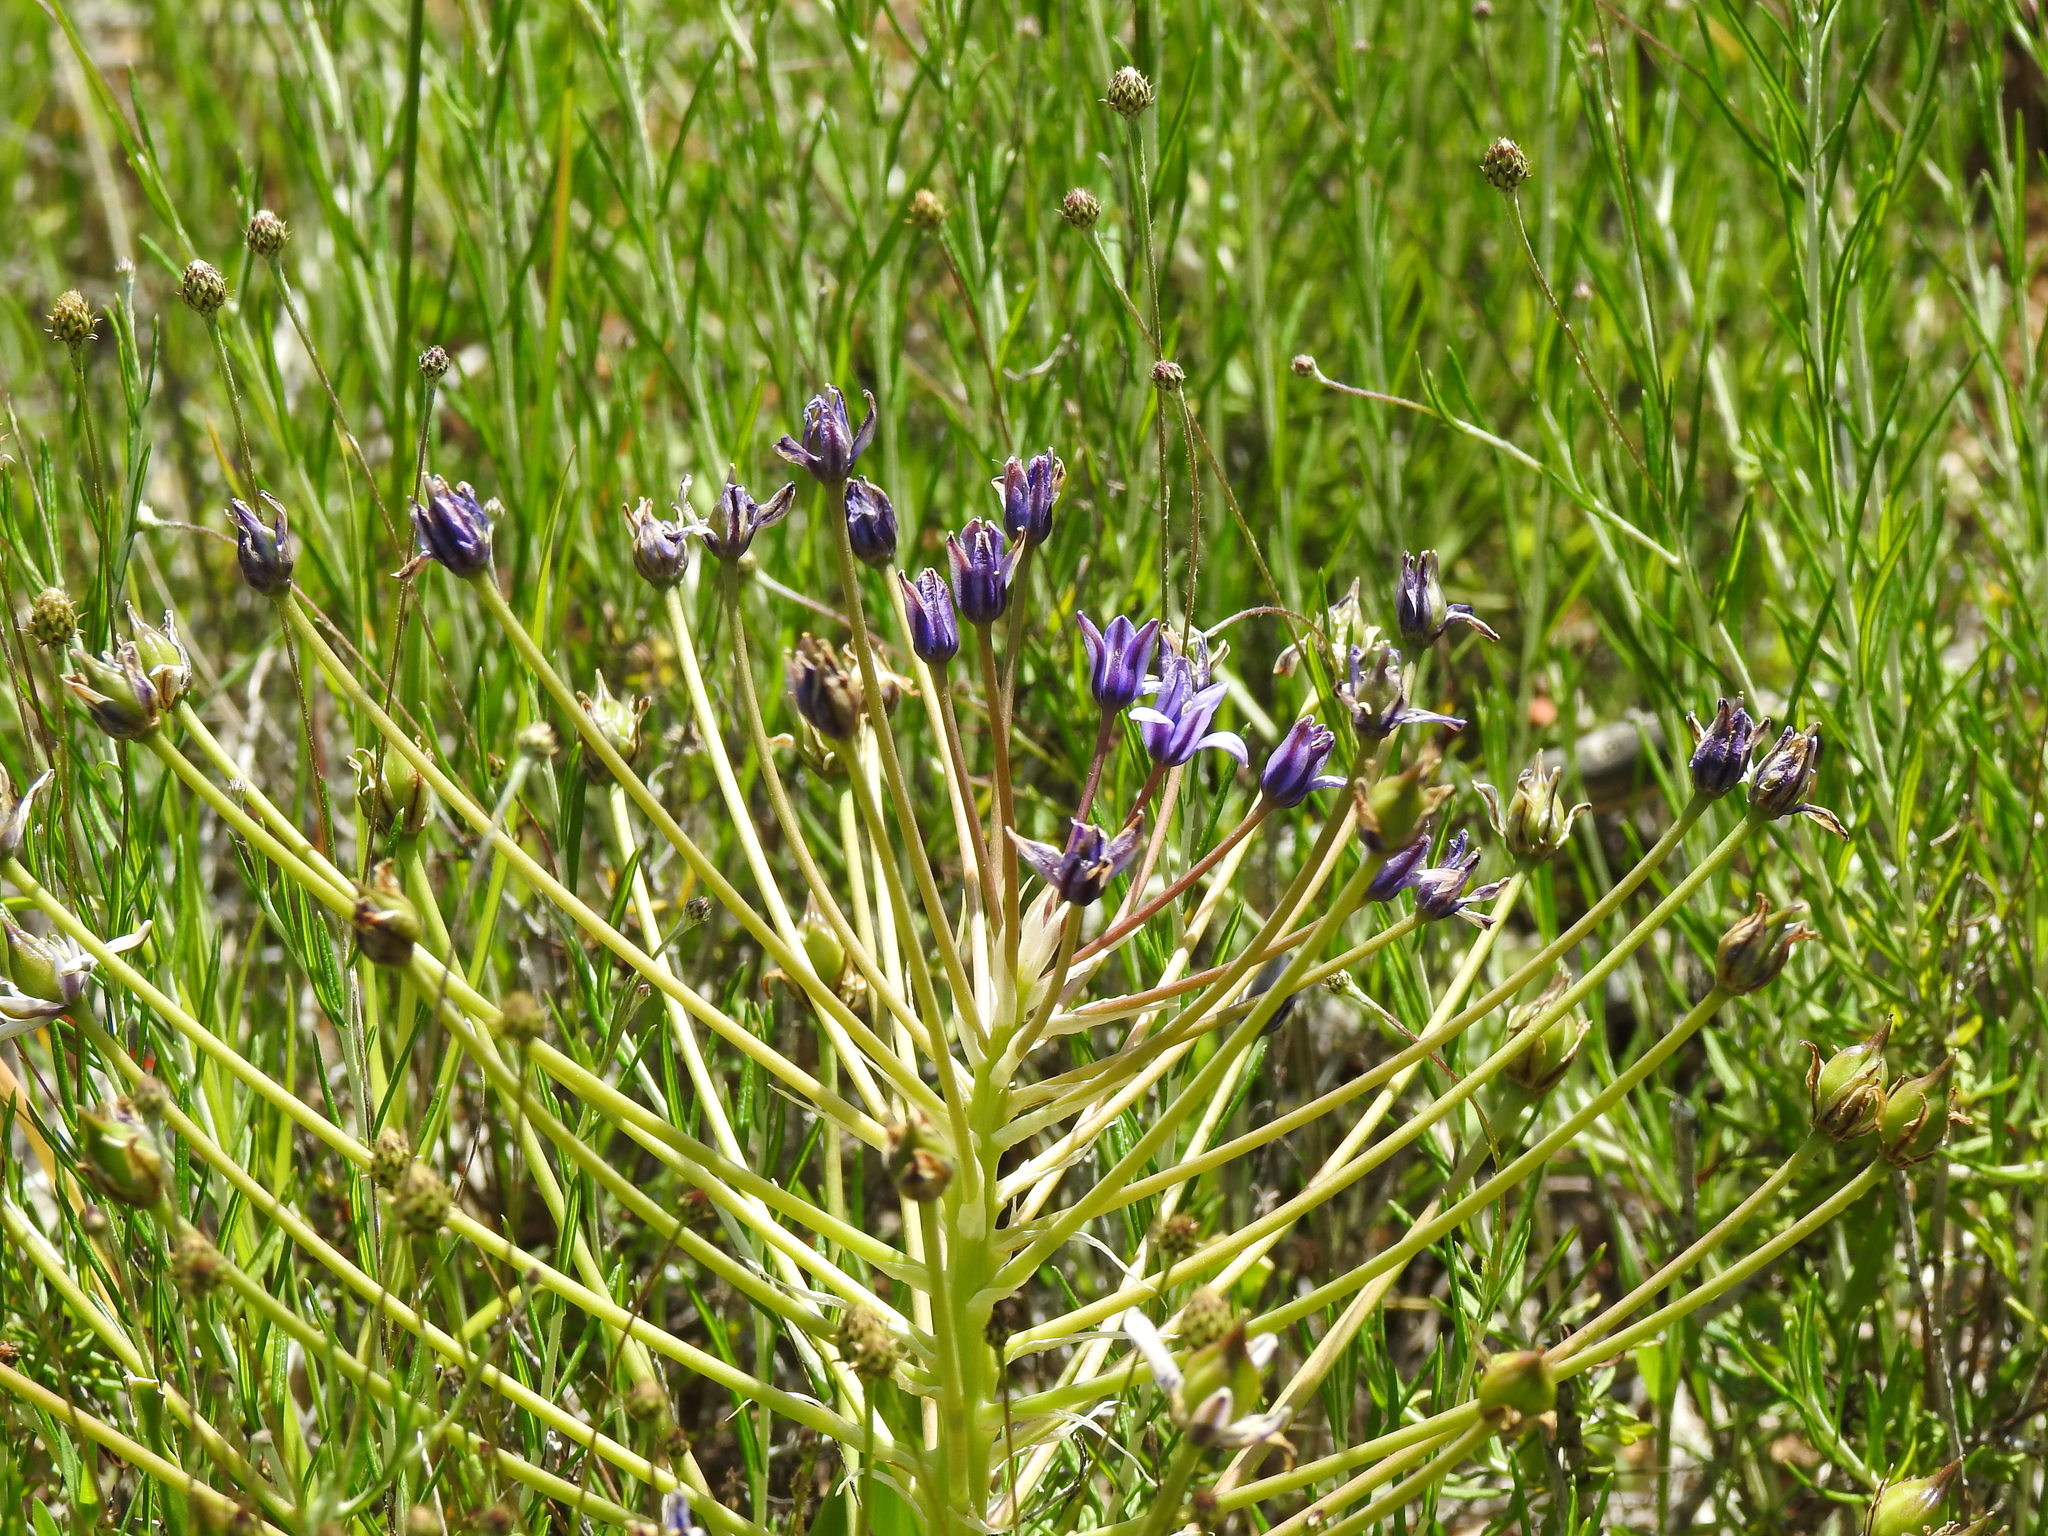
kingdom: Plantae
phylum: Tracheophyta
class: Liliopsida
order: Asparagales
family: Asparagaceae
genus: Scilla
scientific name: Scilla peruviana
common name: Portuguese squill
